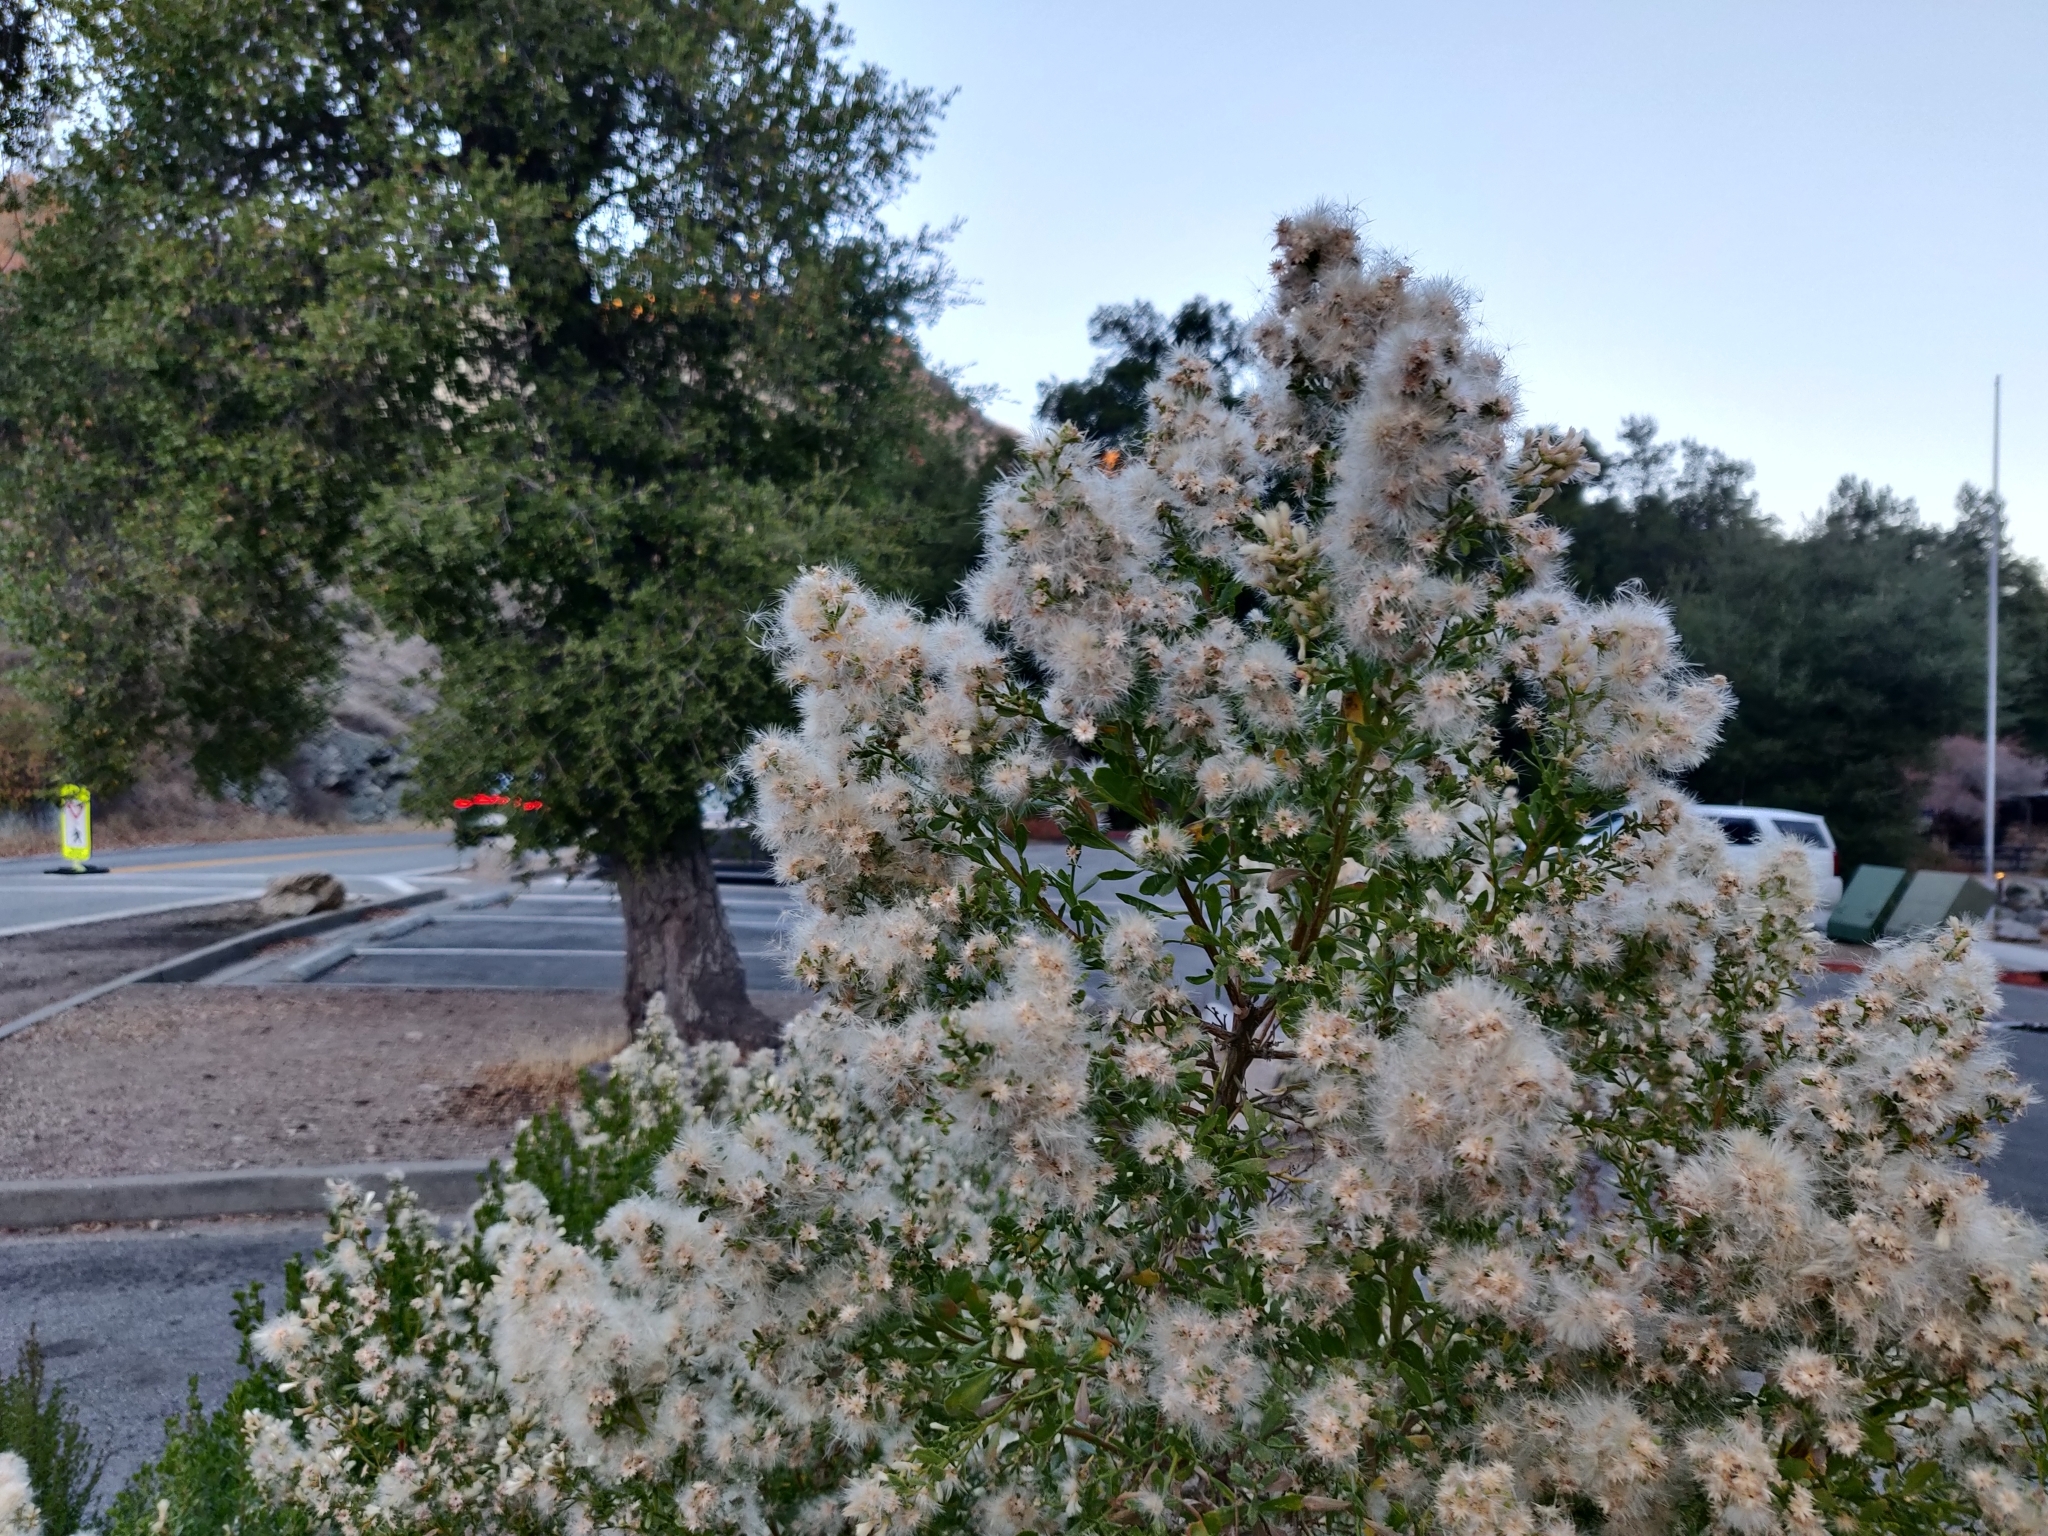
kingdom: Plantae
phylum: Tracheophyta
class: Magnoliopsida
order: Asterales
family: Asteraceae
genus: Baccharis
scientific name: Baccharis pilularis
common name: Coyotebrush
